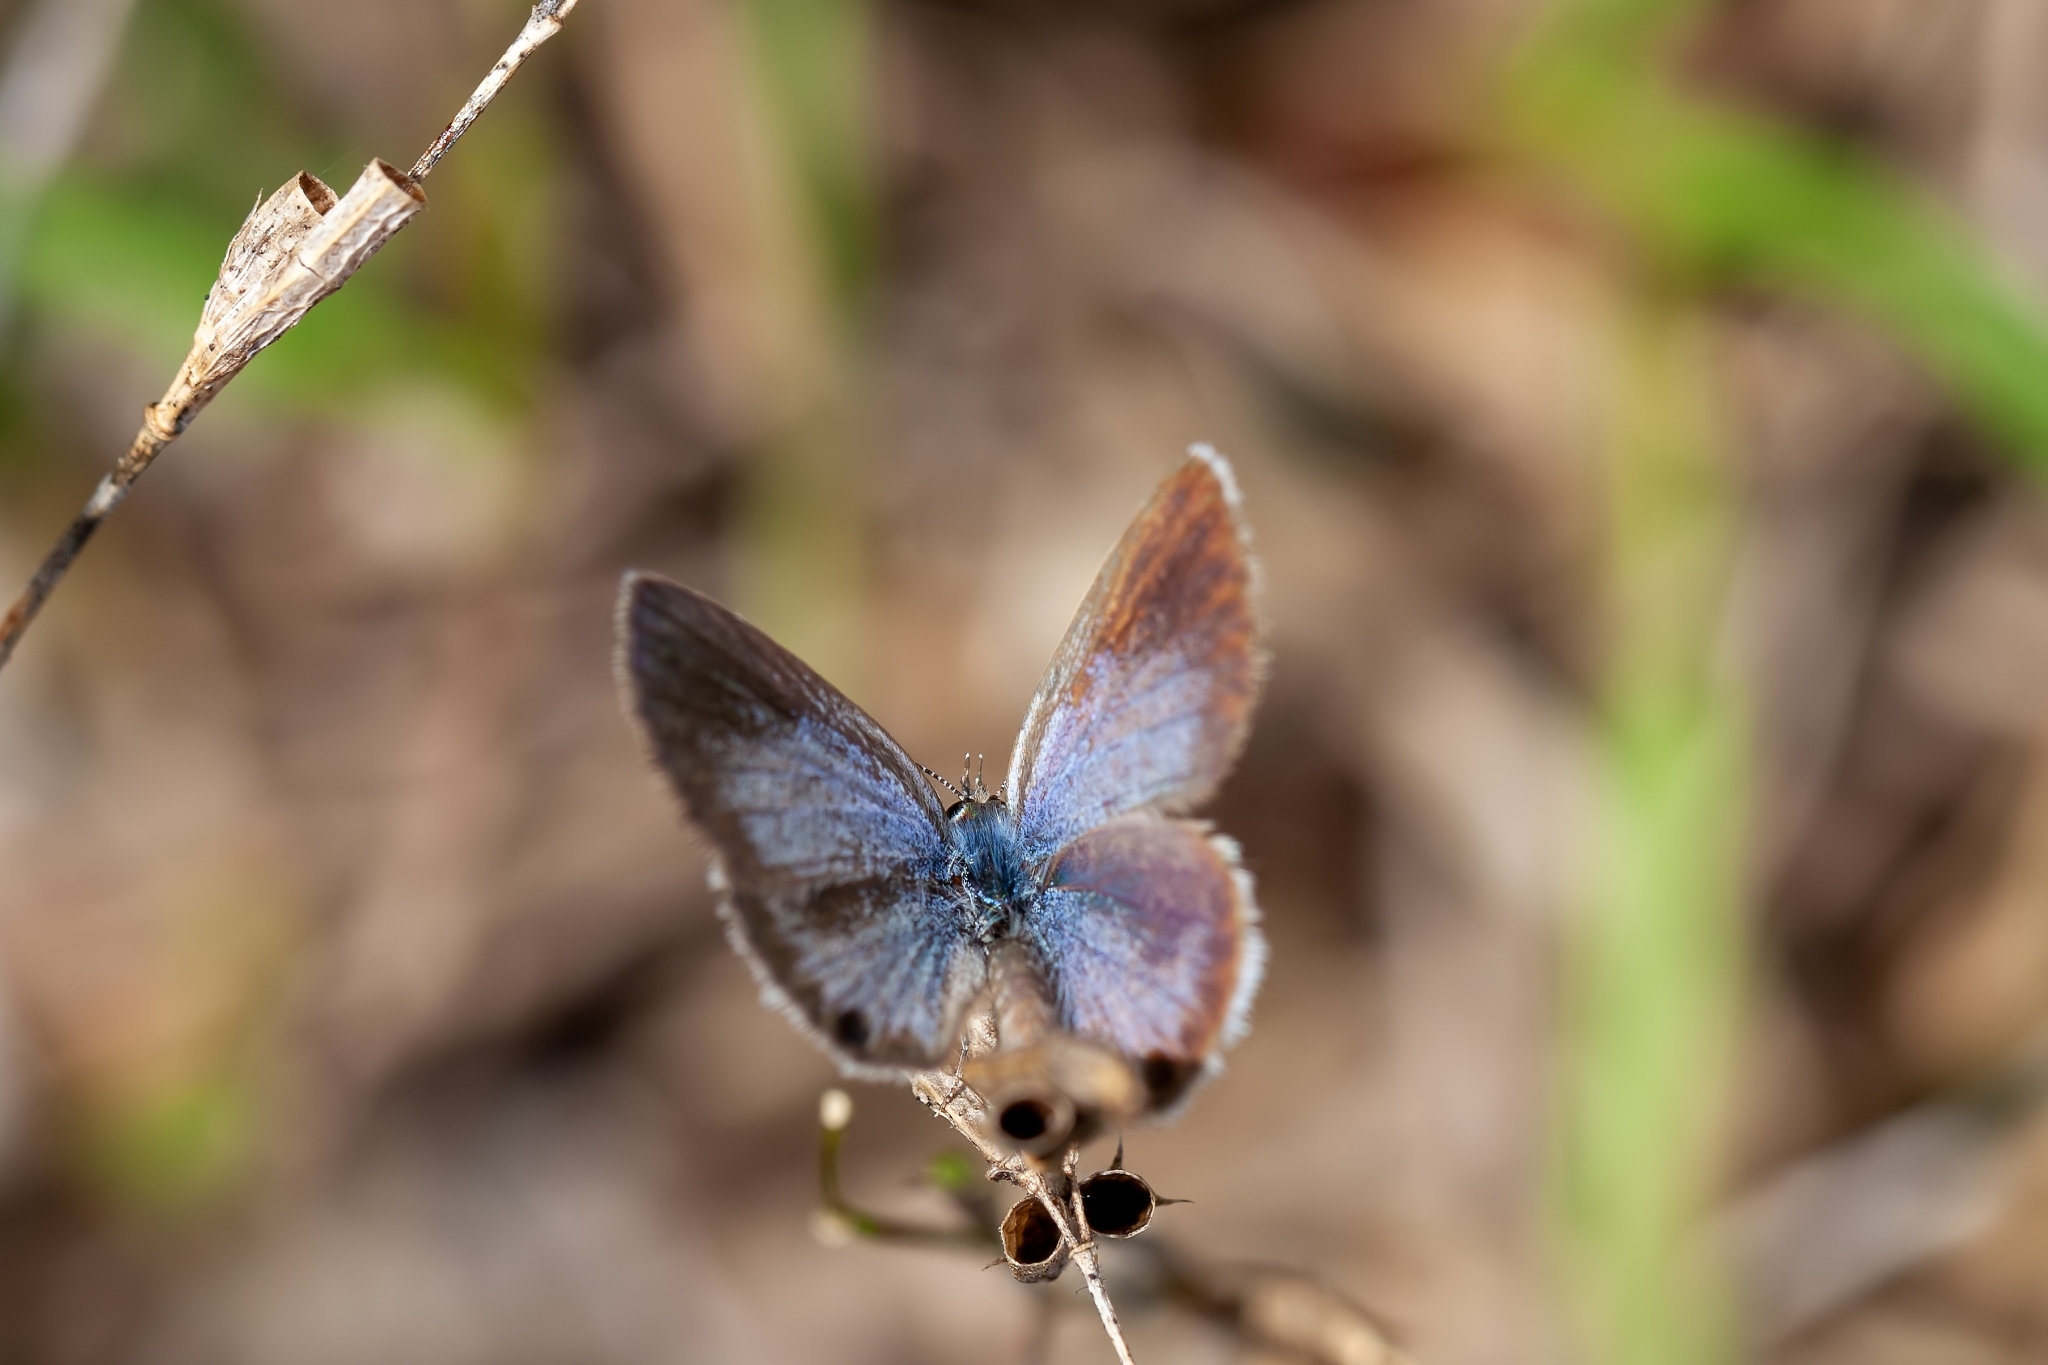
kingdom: Animalia
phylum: Arthropoda
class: Insecta
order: Lepidoptera
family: Lycaenidae
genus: Hemiargus
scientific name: Hemiargus ceraunus
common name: Ceraunus blue
